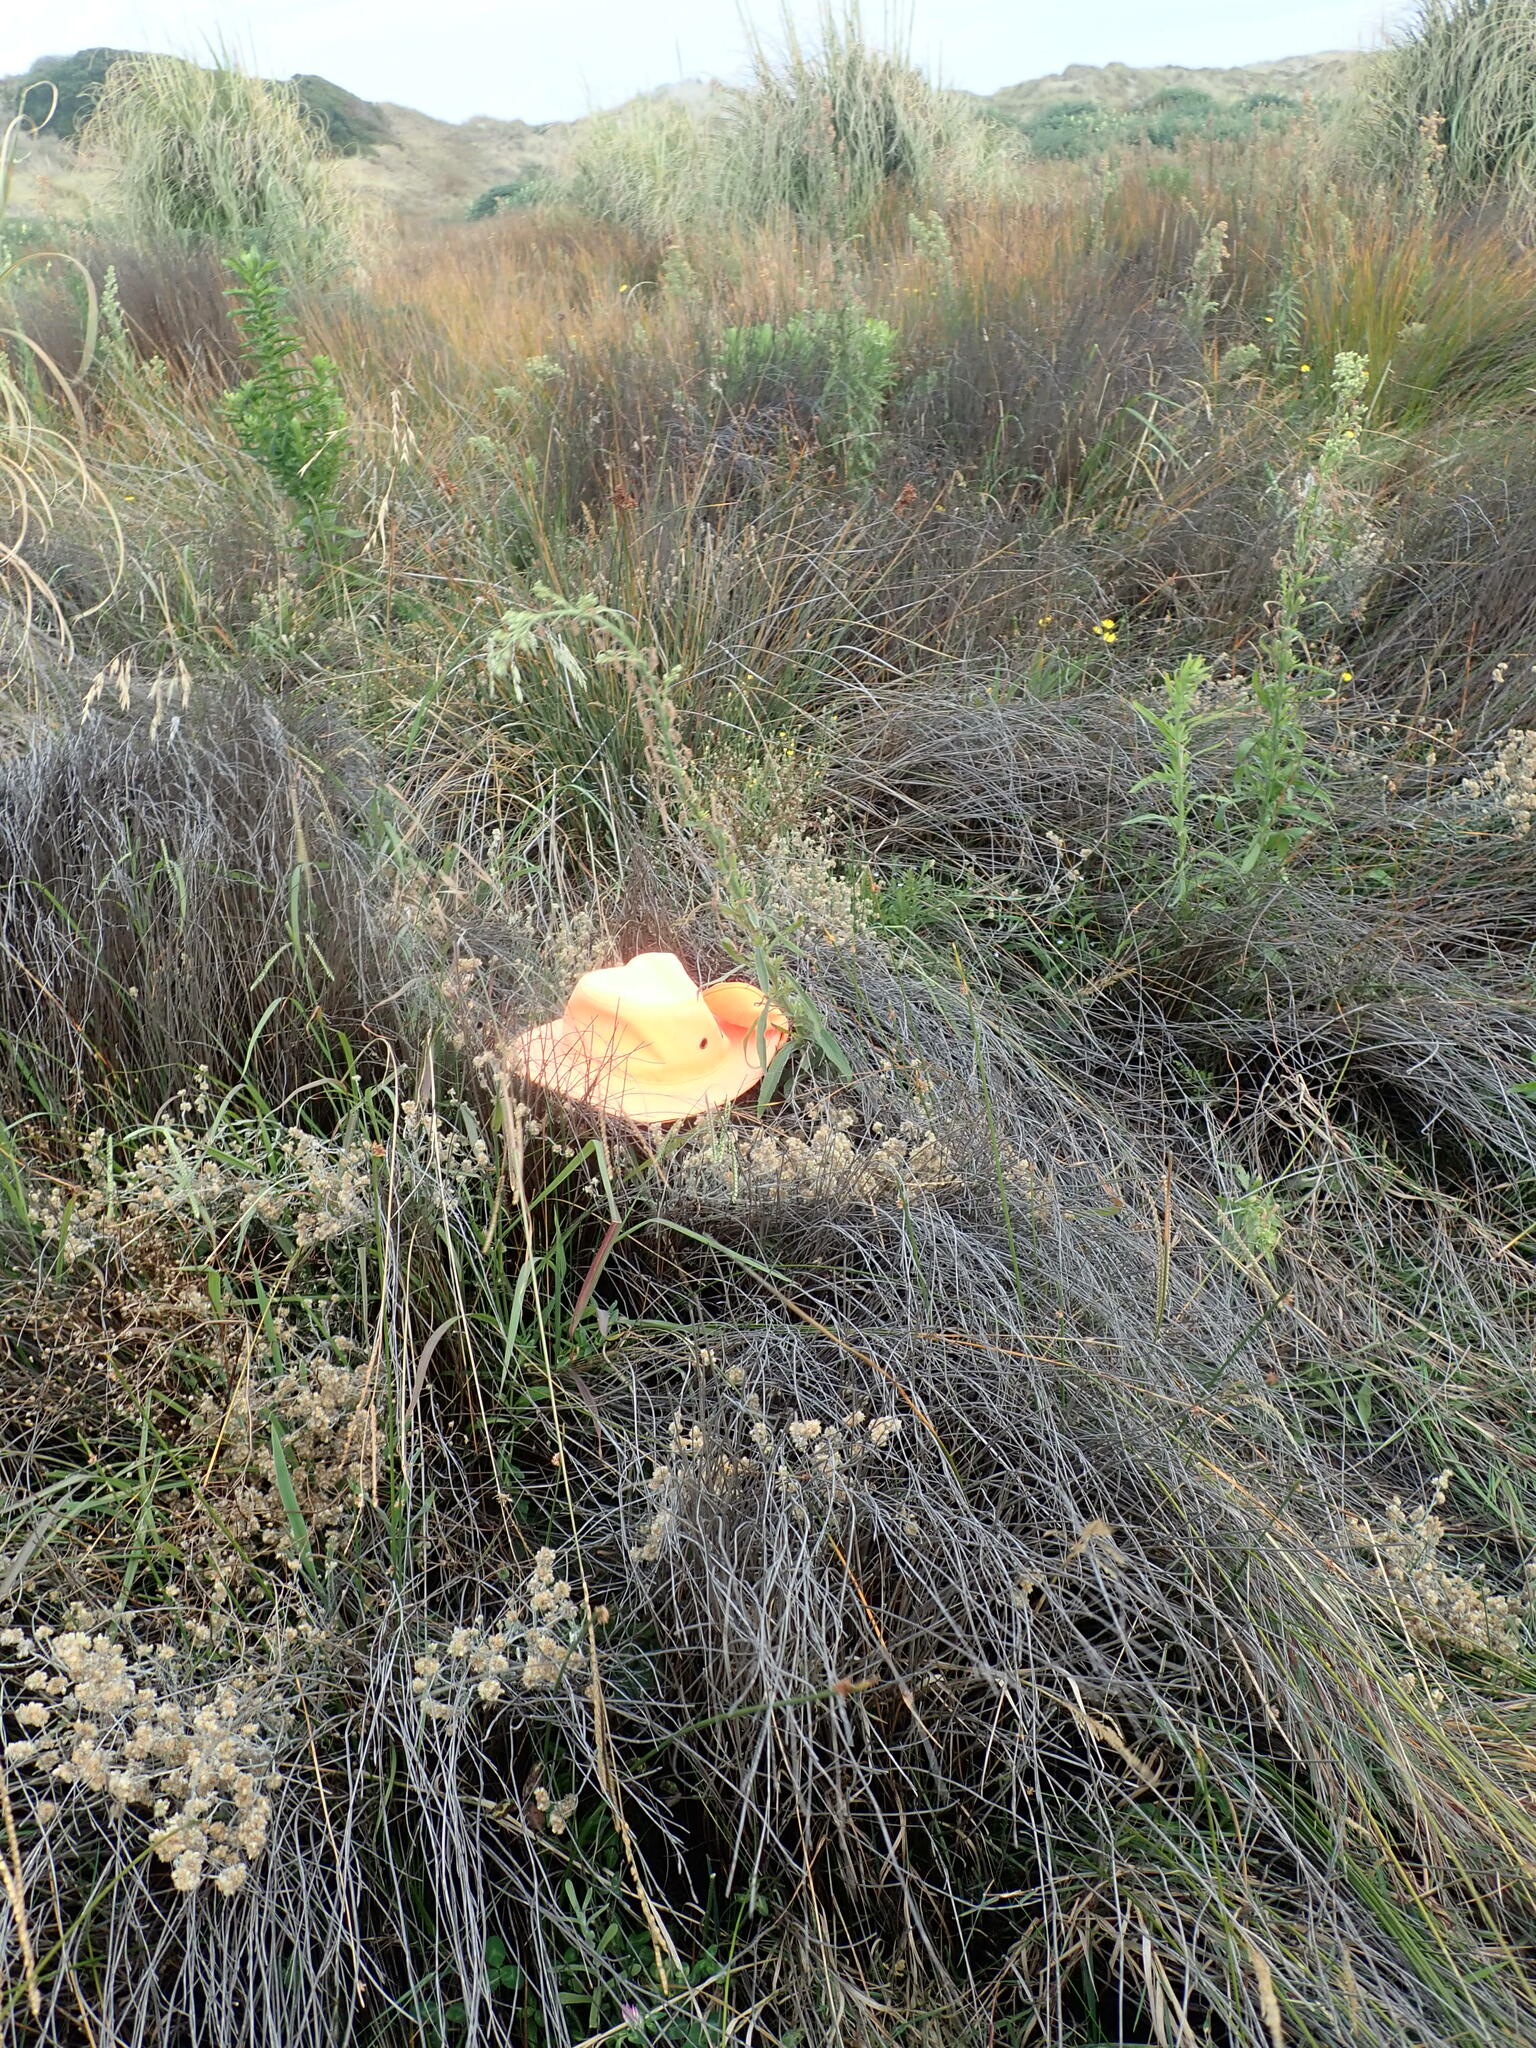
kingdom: Plantae
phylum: Tracheophyta
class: Magnoliopsida
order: Asterales
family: Campanulaceae
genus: Lobelia
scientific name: Lobelia anceps
